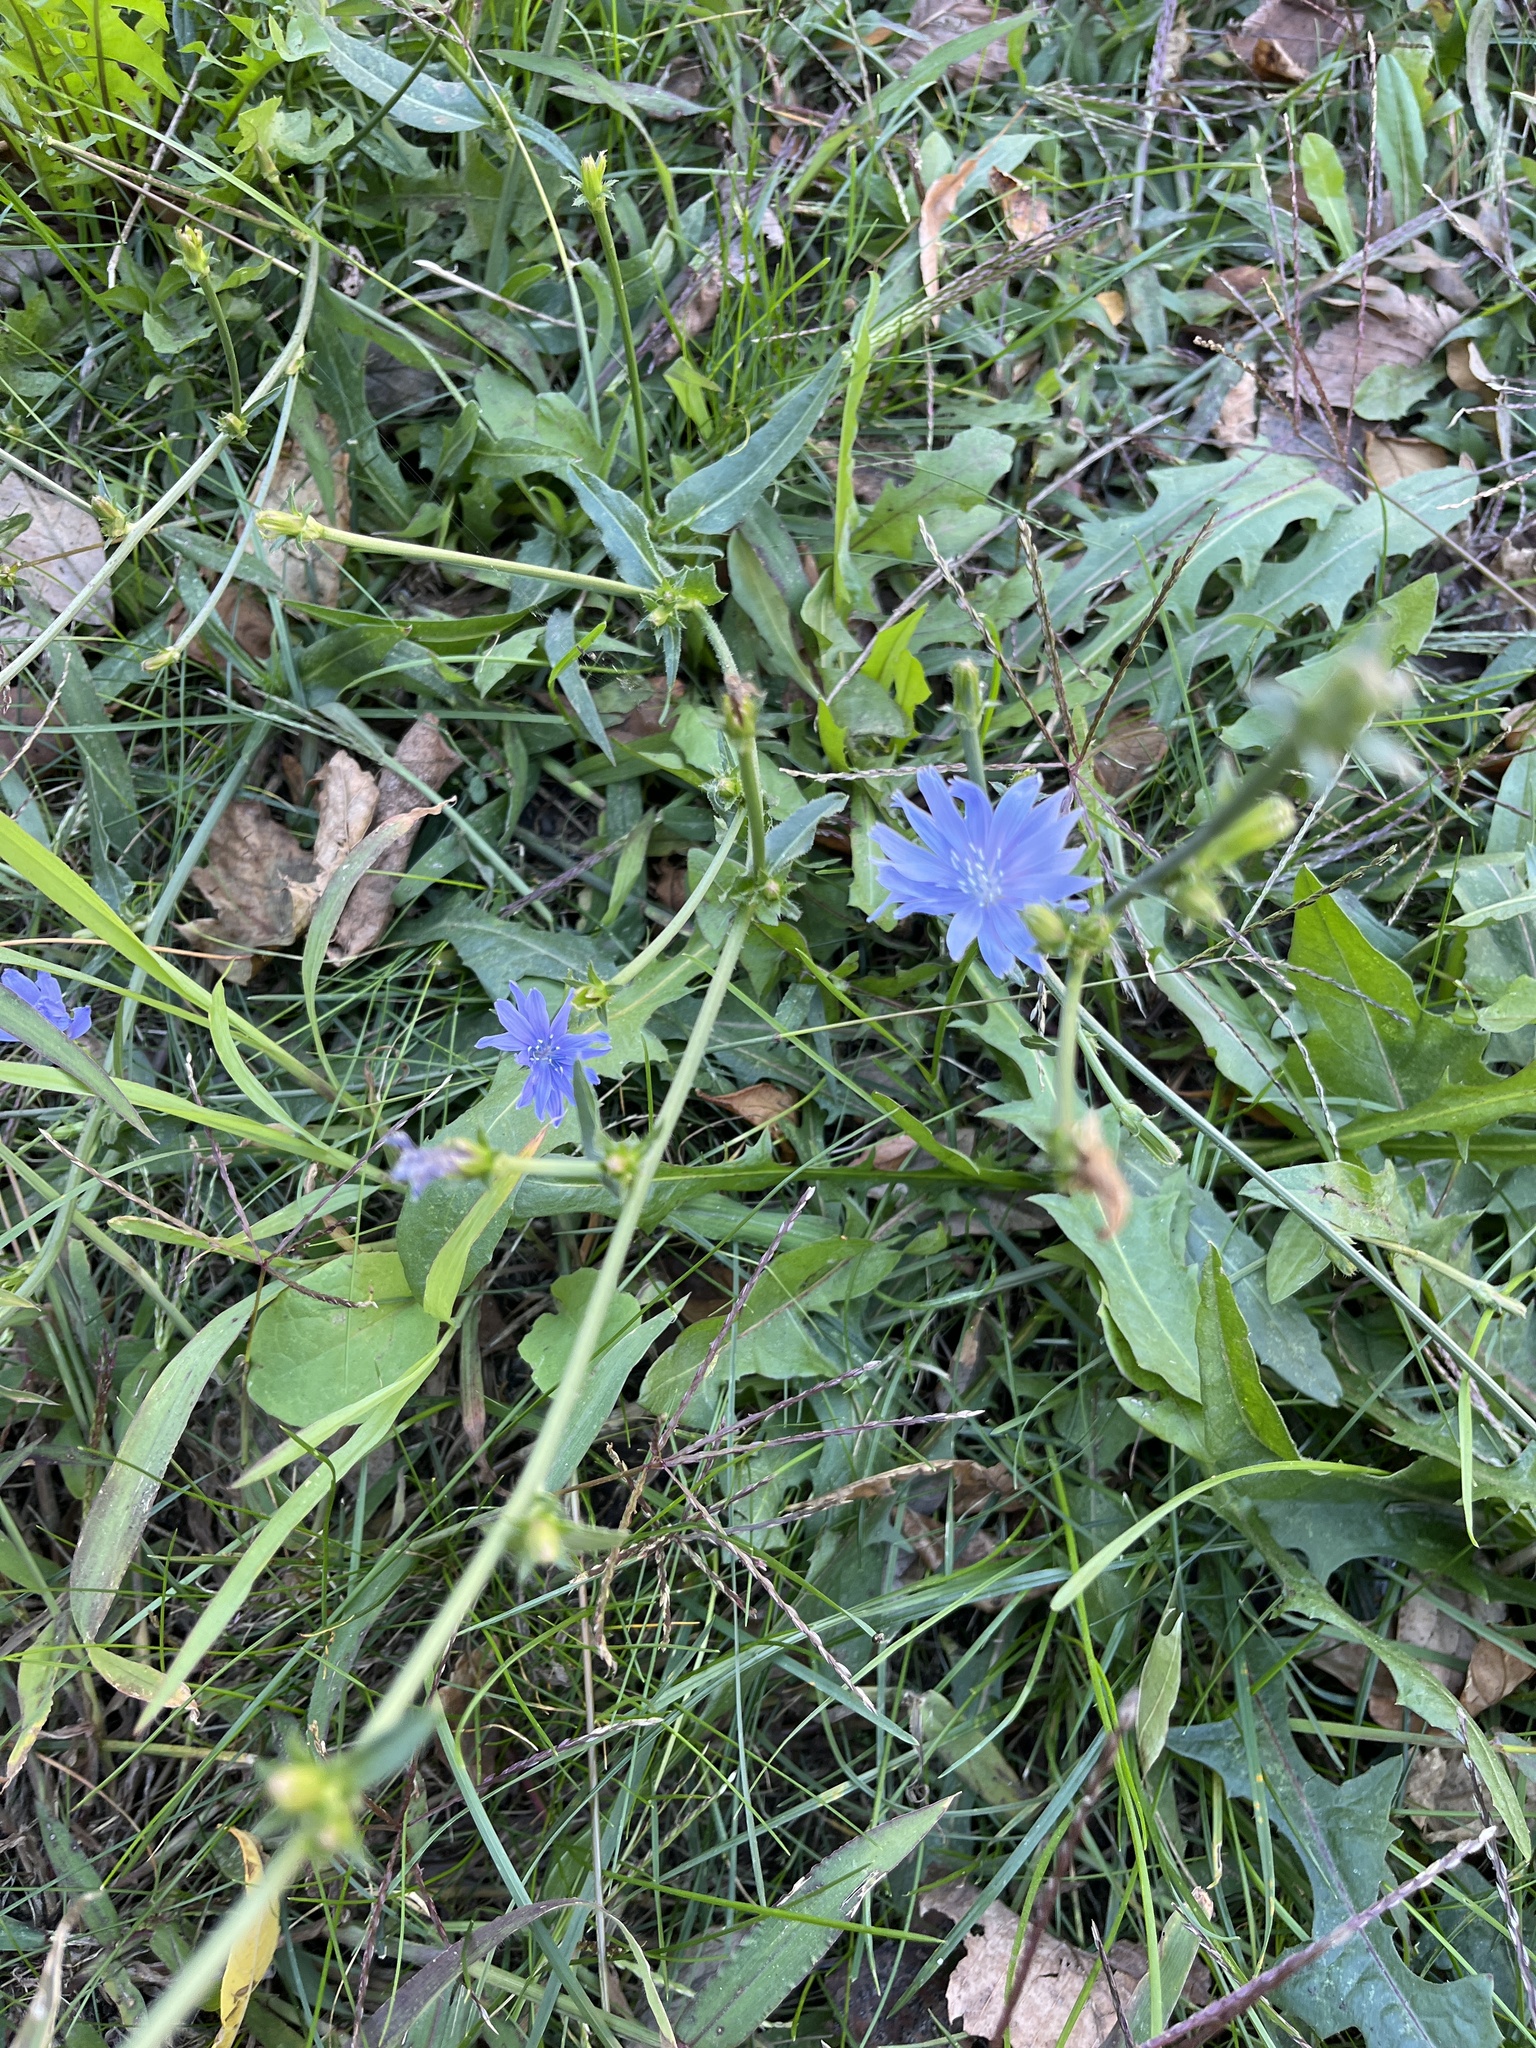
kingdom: Plantae
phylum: Tracheophyta
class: Magnoliopsida
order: Asterales
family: Asteraceae
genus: Cichorium
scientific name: Cichorium intybus
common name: Chicory
